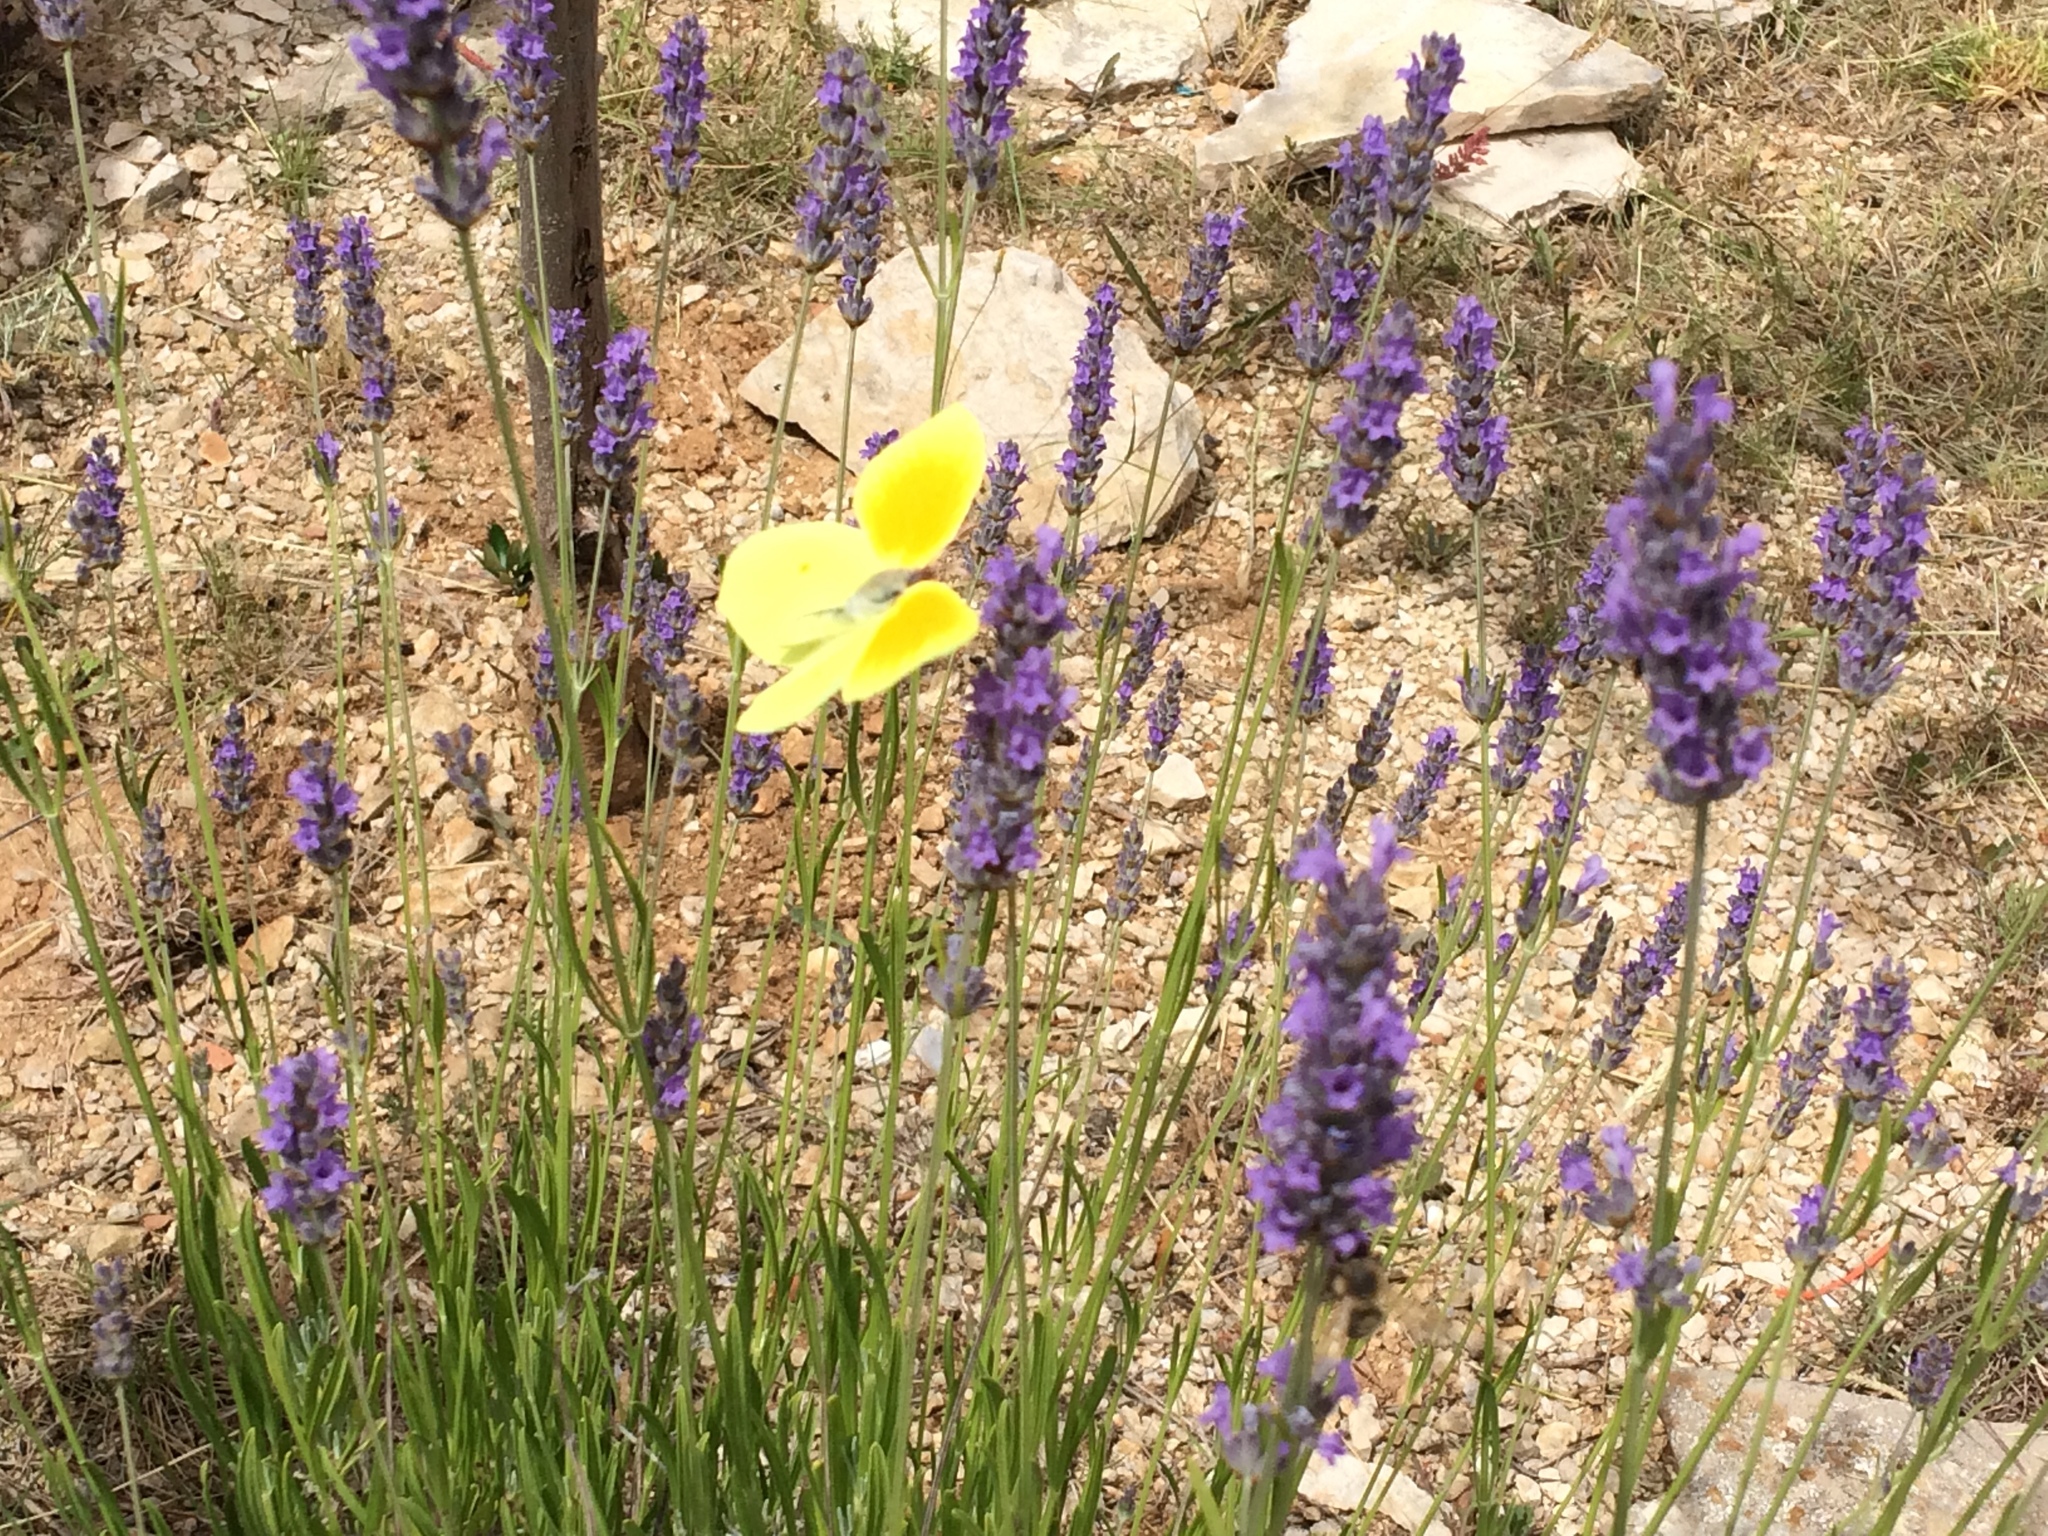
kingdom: Animalia
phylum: Arthropoda
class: Insecta
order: Lepidoptera
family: Pieridae
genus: Gonepteryx
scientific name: Gonepteryx cleopatra
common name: Cleopatra
